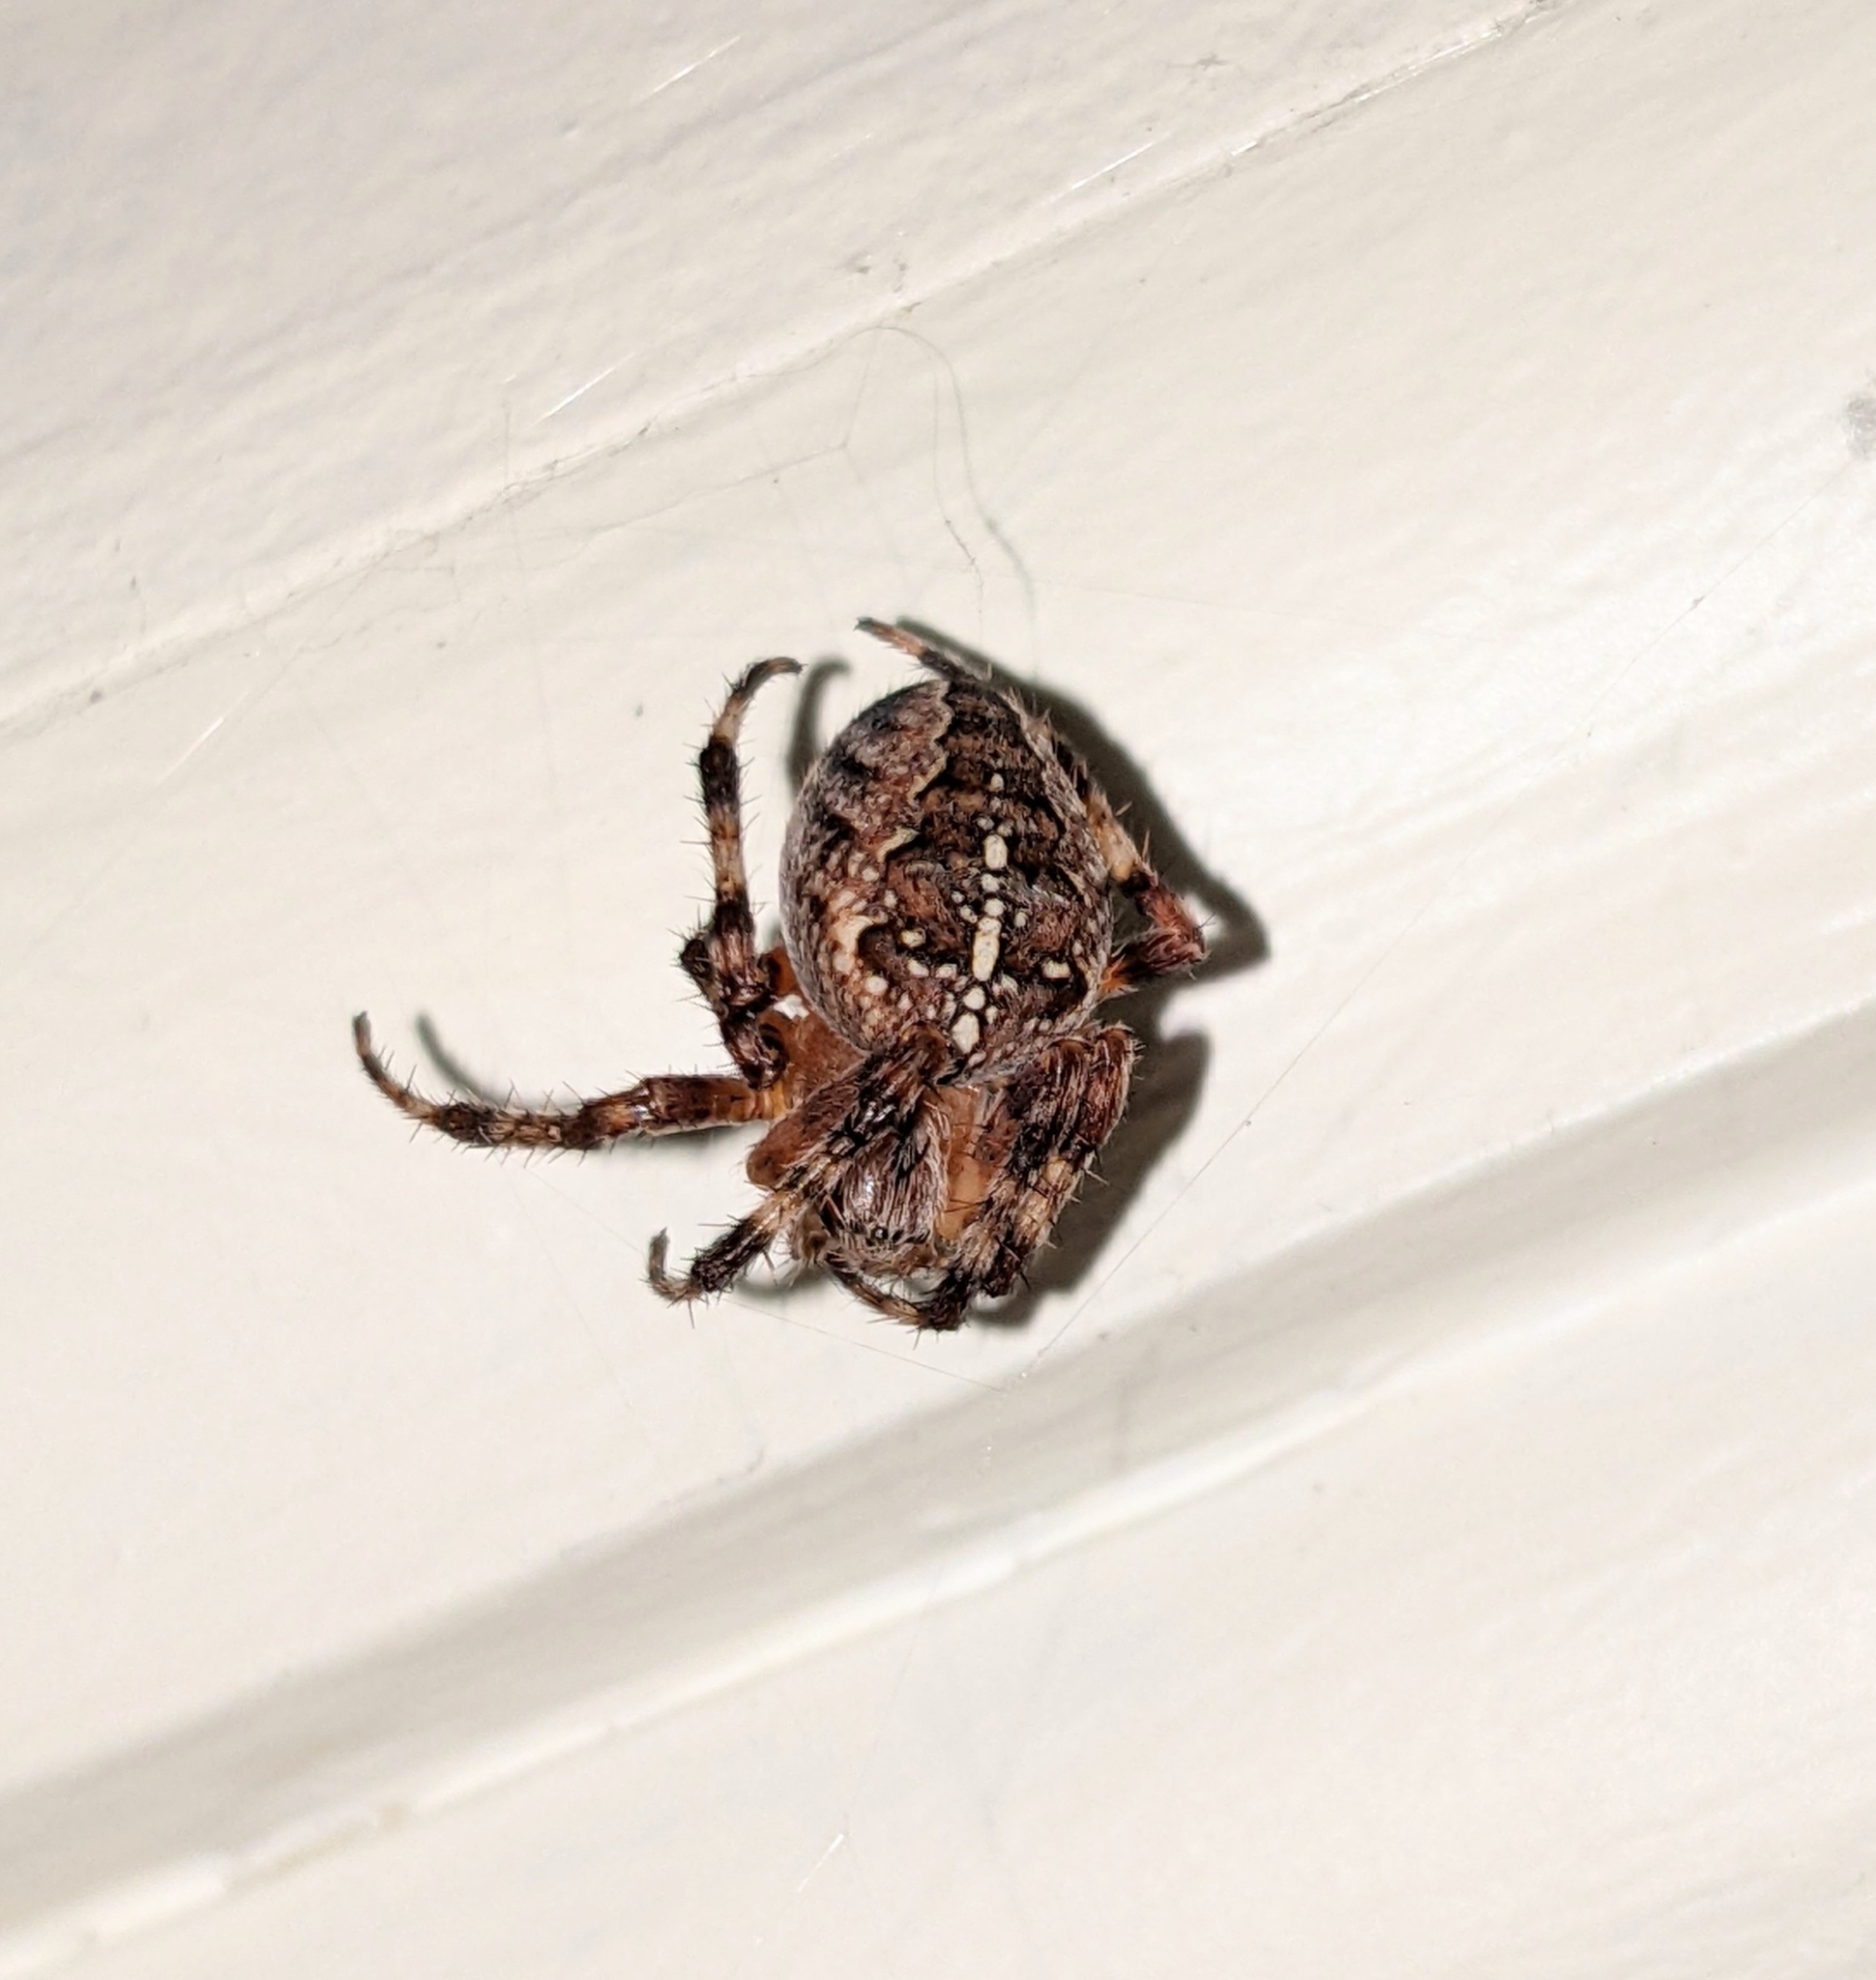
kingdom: Animalia
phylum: Arthropoda
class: Arachnida
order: Araneae
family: Araneidae
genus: Araneus
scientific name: Araneus diadematus
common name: Cross orbweaver
